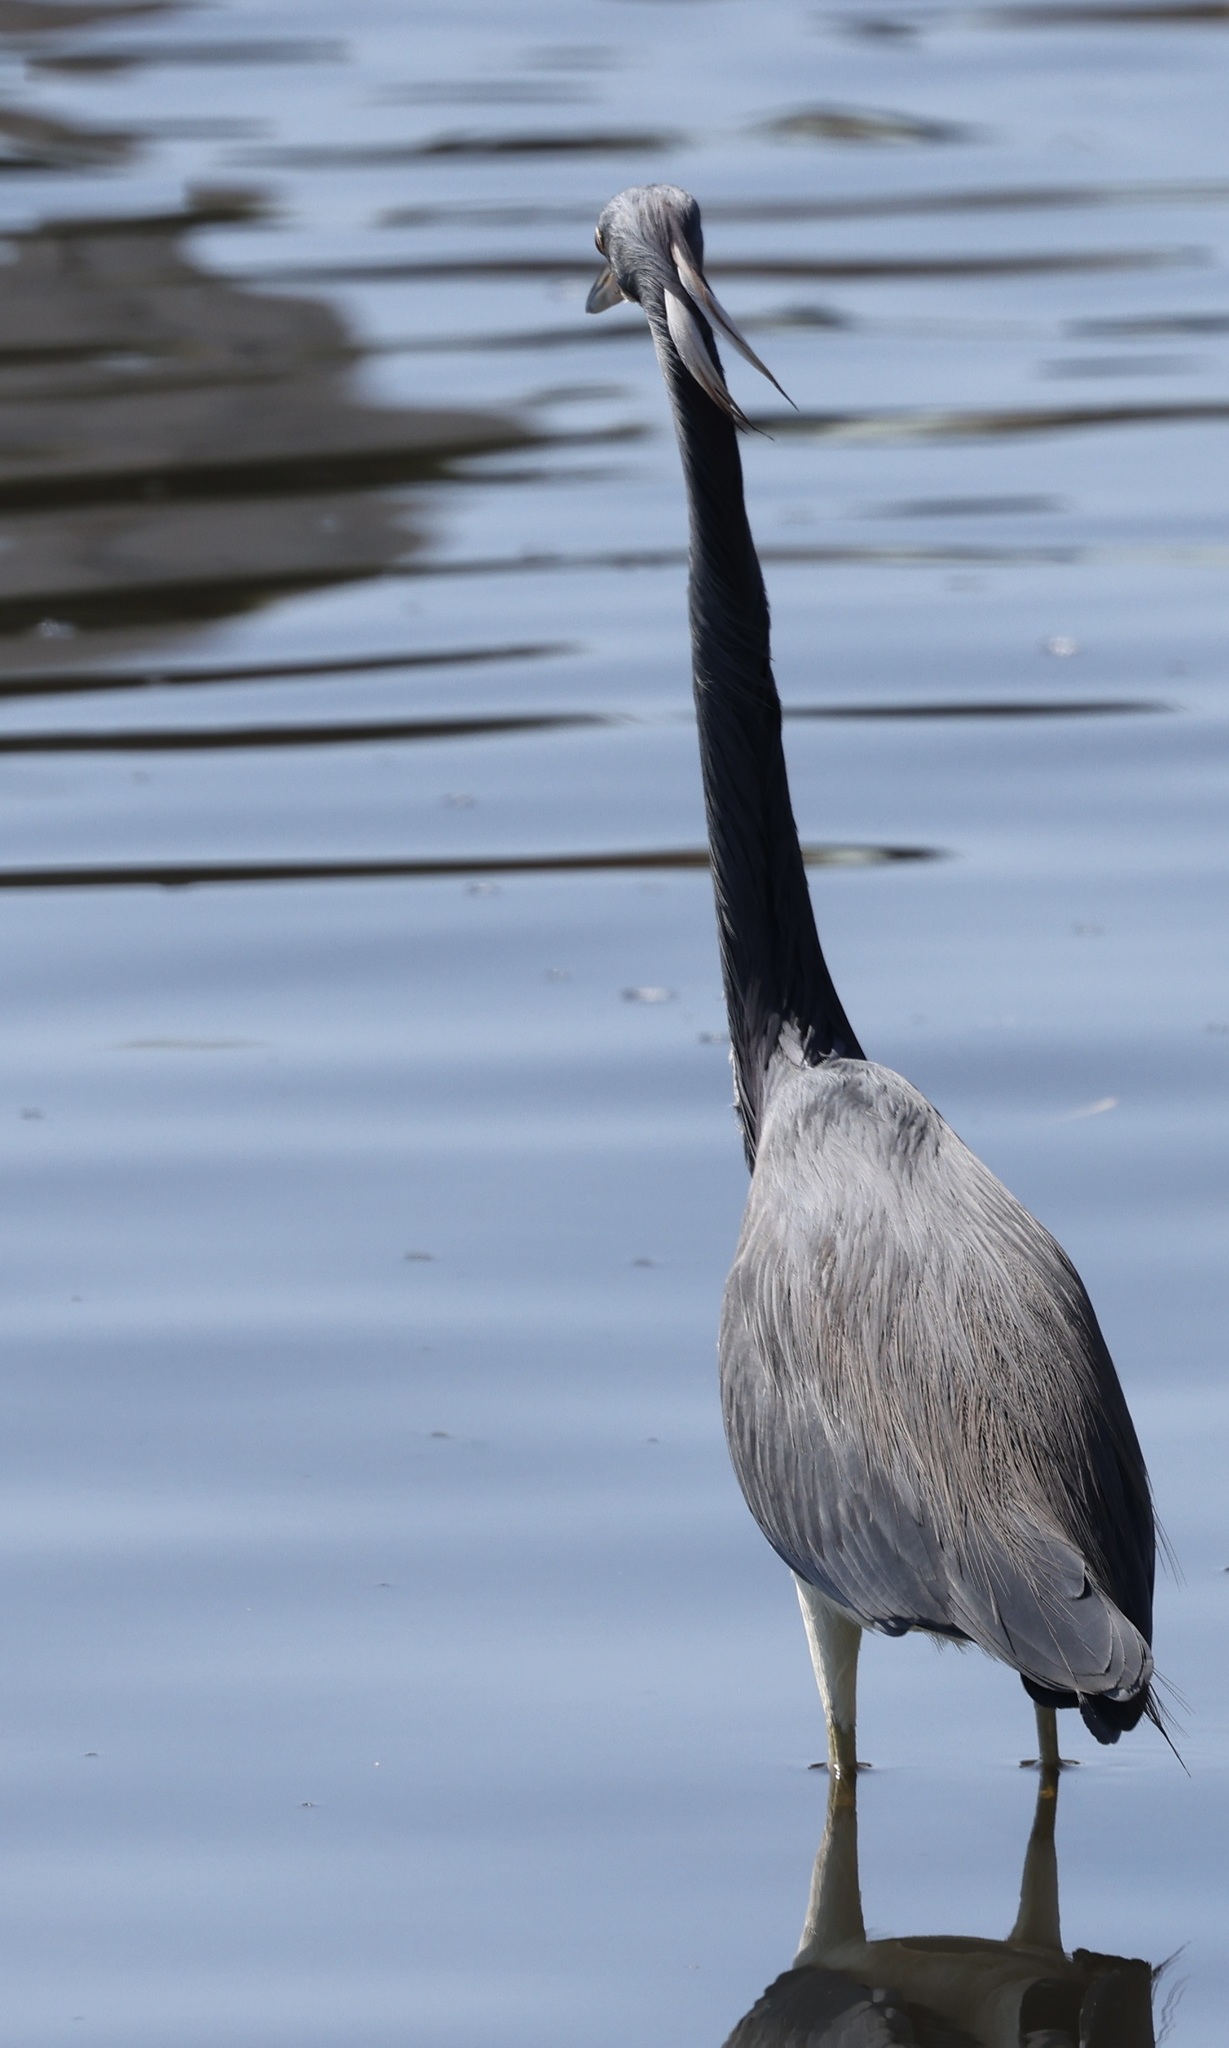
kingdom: Animalia
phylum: Chordata
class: Aves
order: Pelecaniformes
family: Ardeidae
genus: Egretta
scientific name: Egretta tricolor
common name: Tricolored heron
